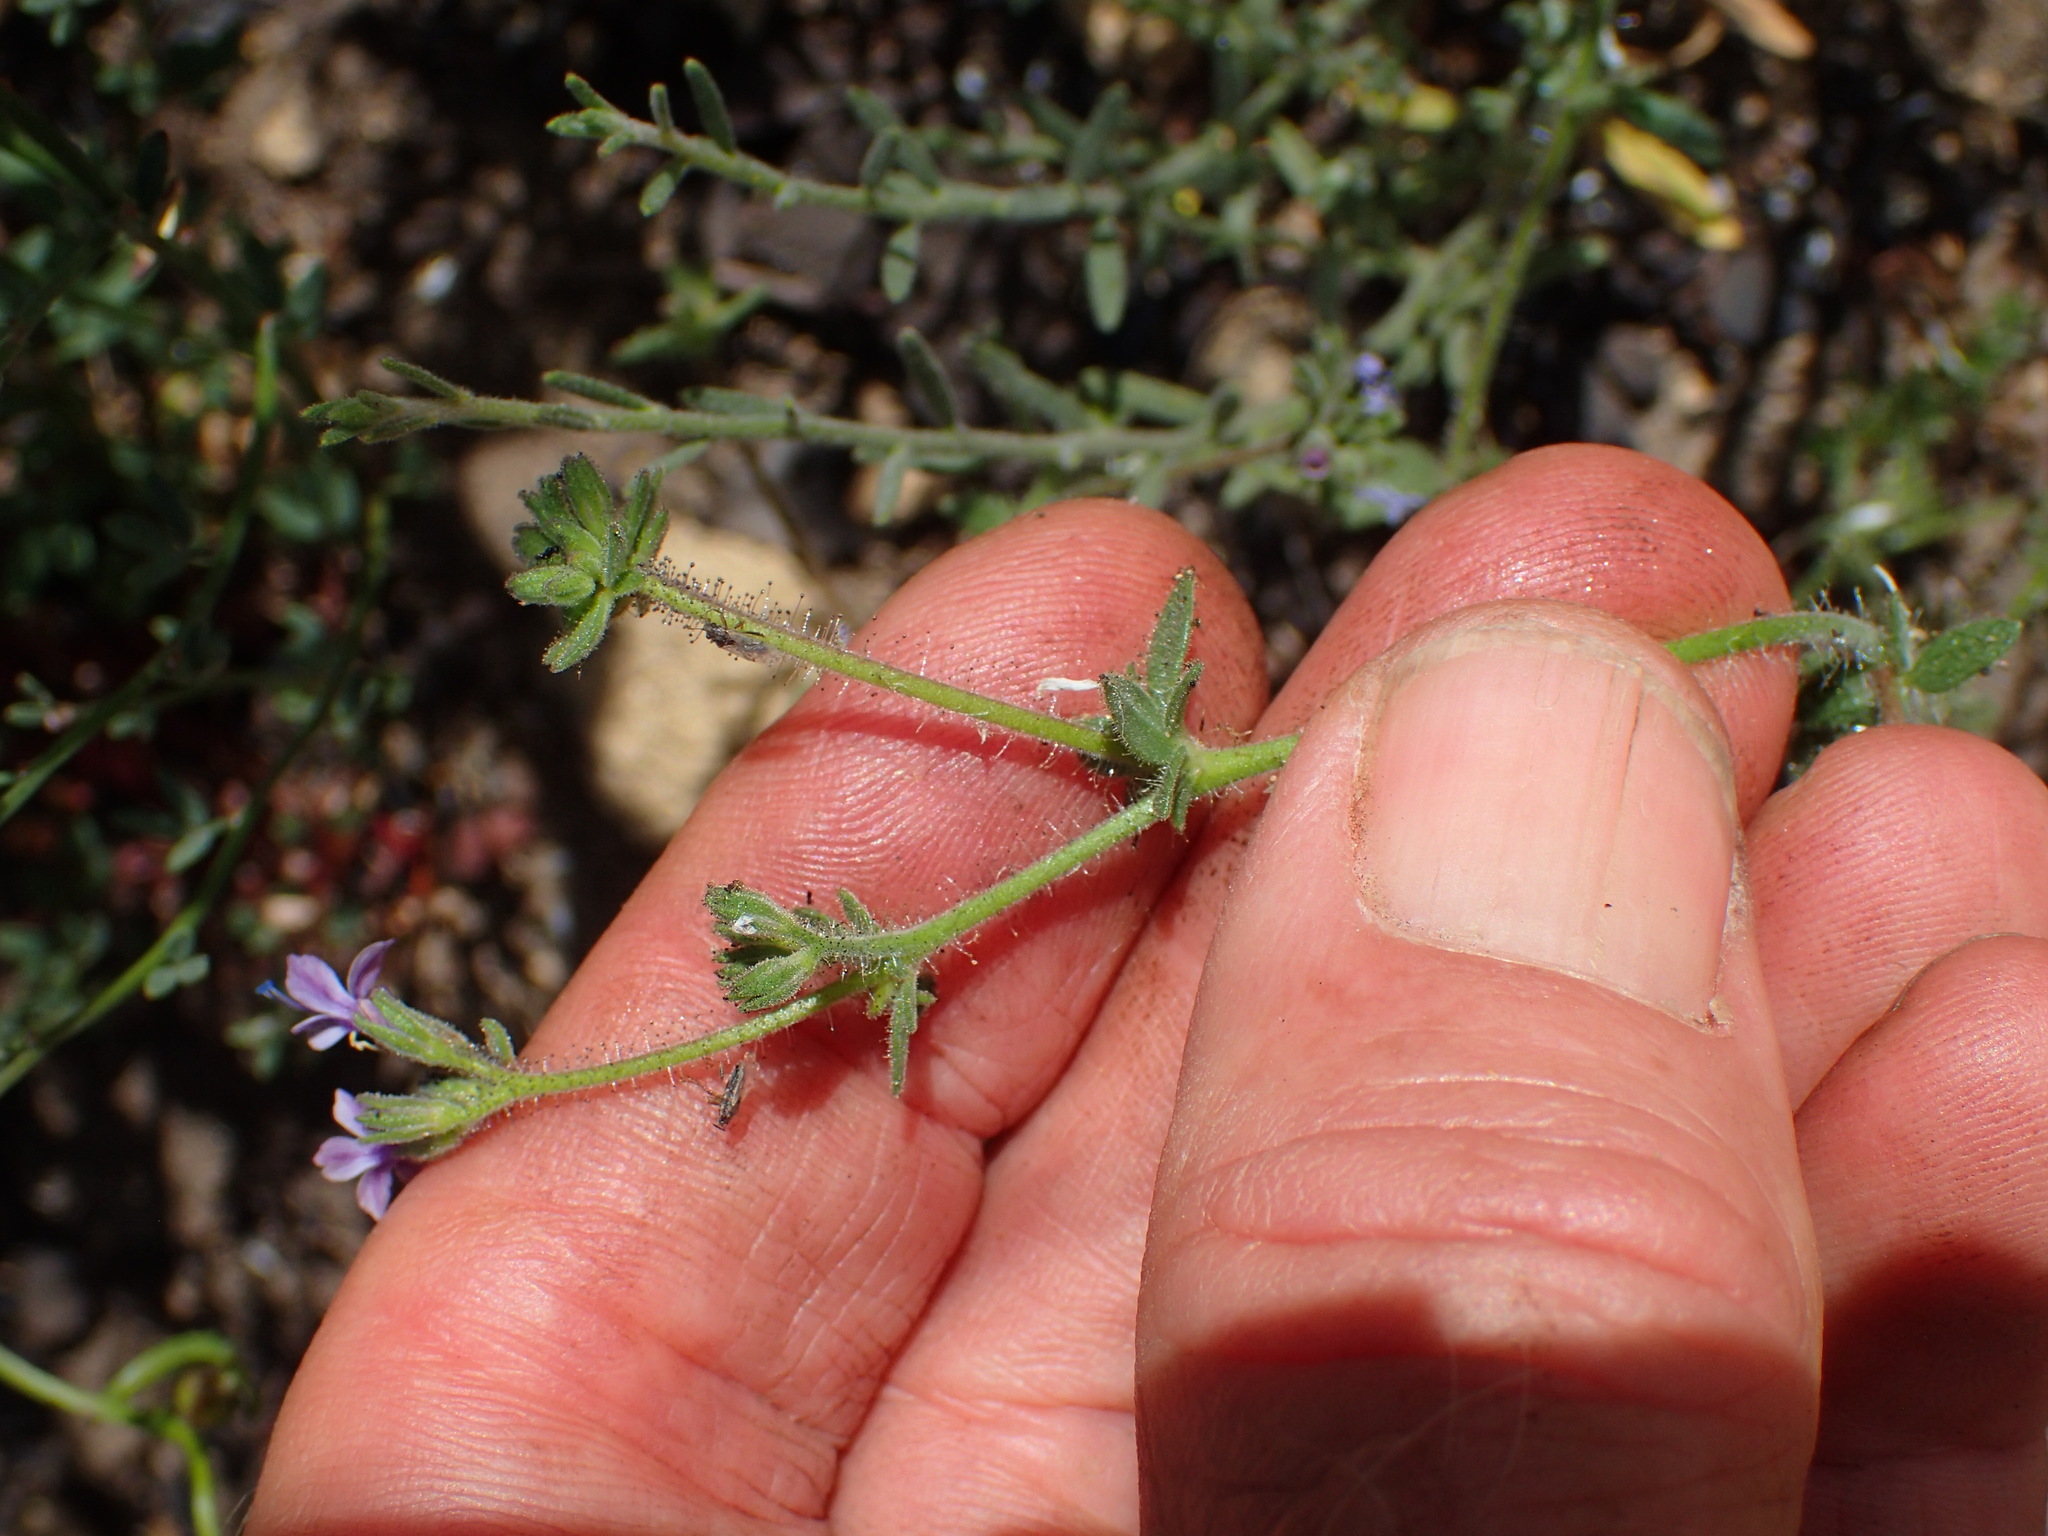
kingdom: Plantae
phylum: Tracheophyta
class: Magnoliopsida
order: Ericales
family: Polemoniaceae
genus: Allophyllum
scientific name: Allophyllum glutinosum
